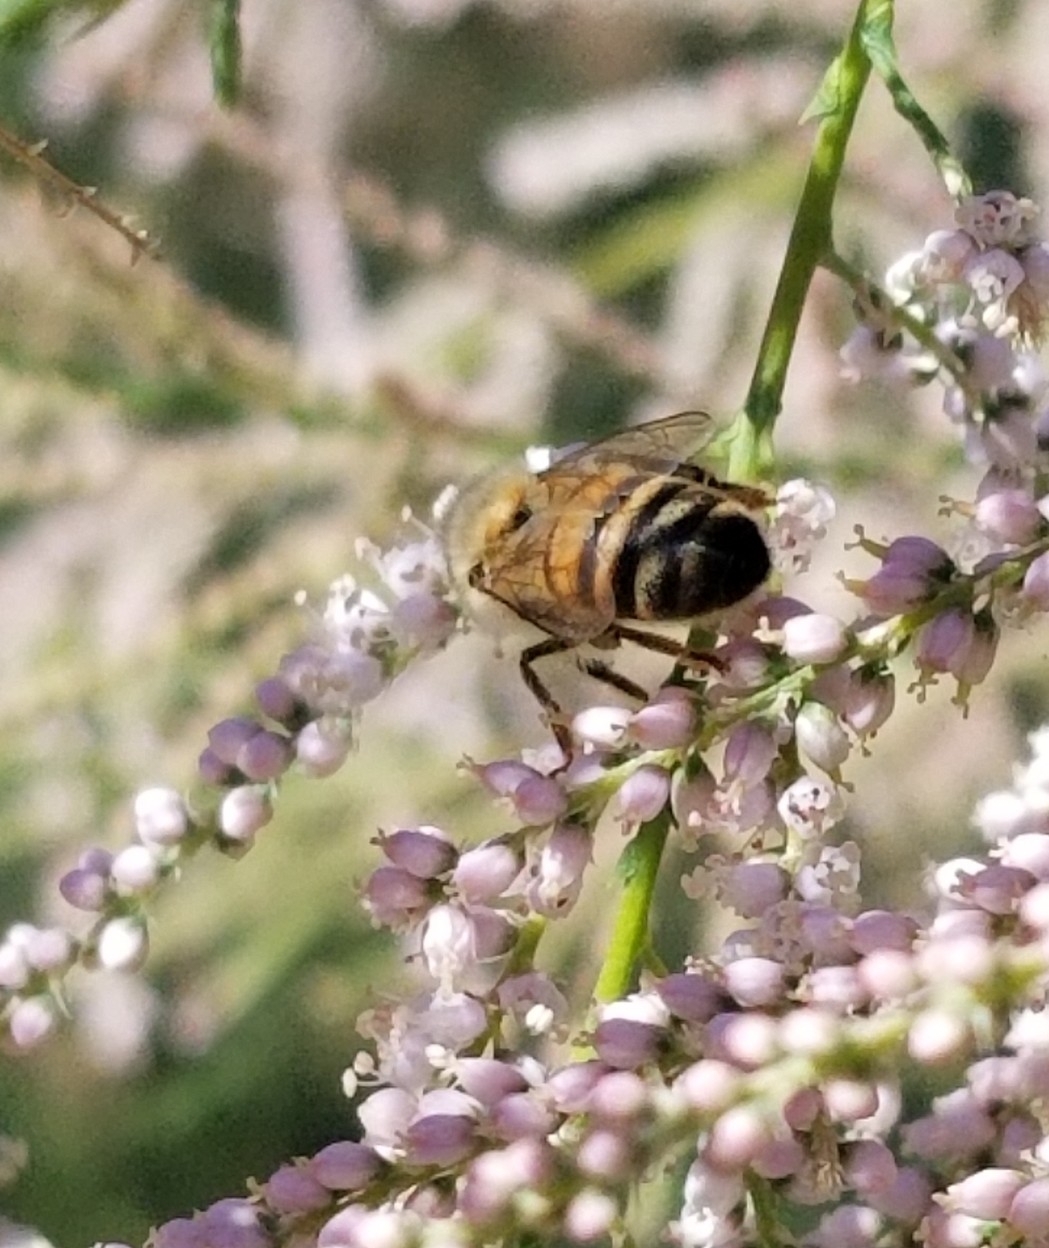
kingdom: Animalia
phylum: Arthropoda
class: Insecta
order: Hymenoptera
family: Apidae
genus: Apis
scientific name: Apis mellifera
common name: Honey bee
